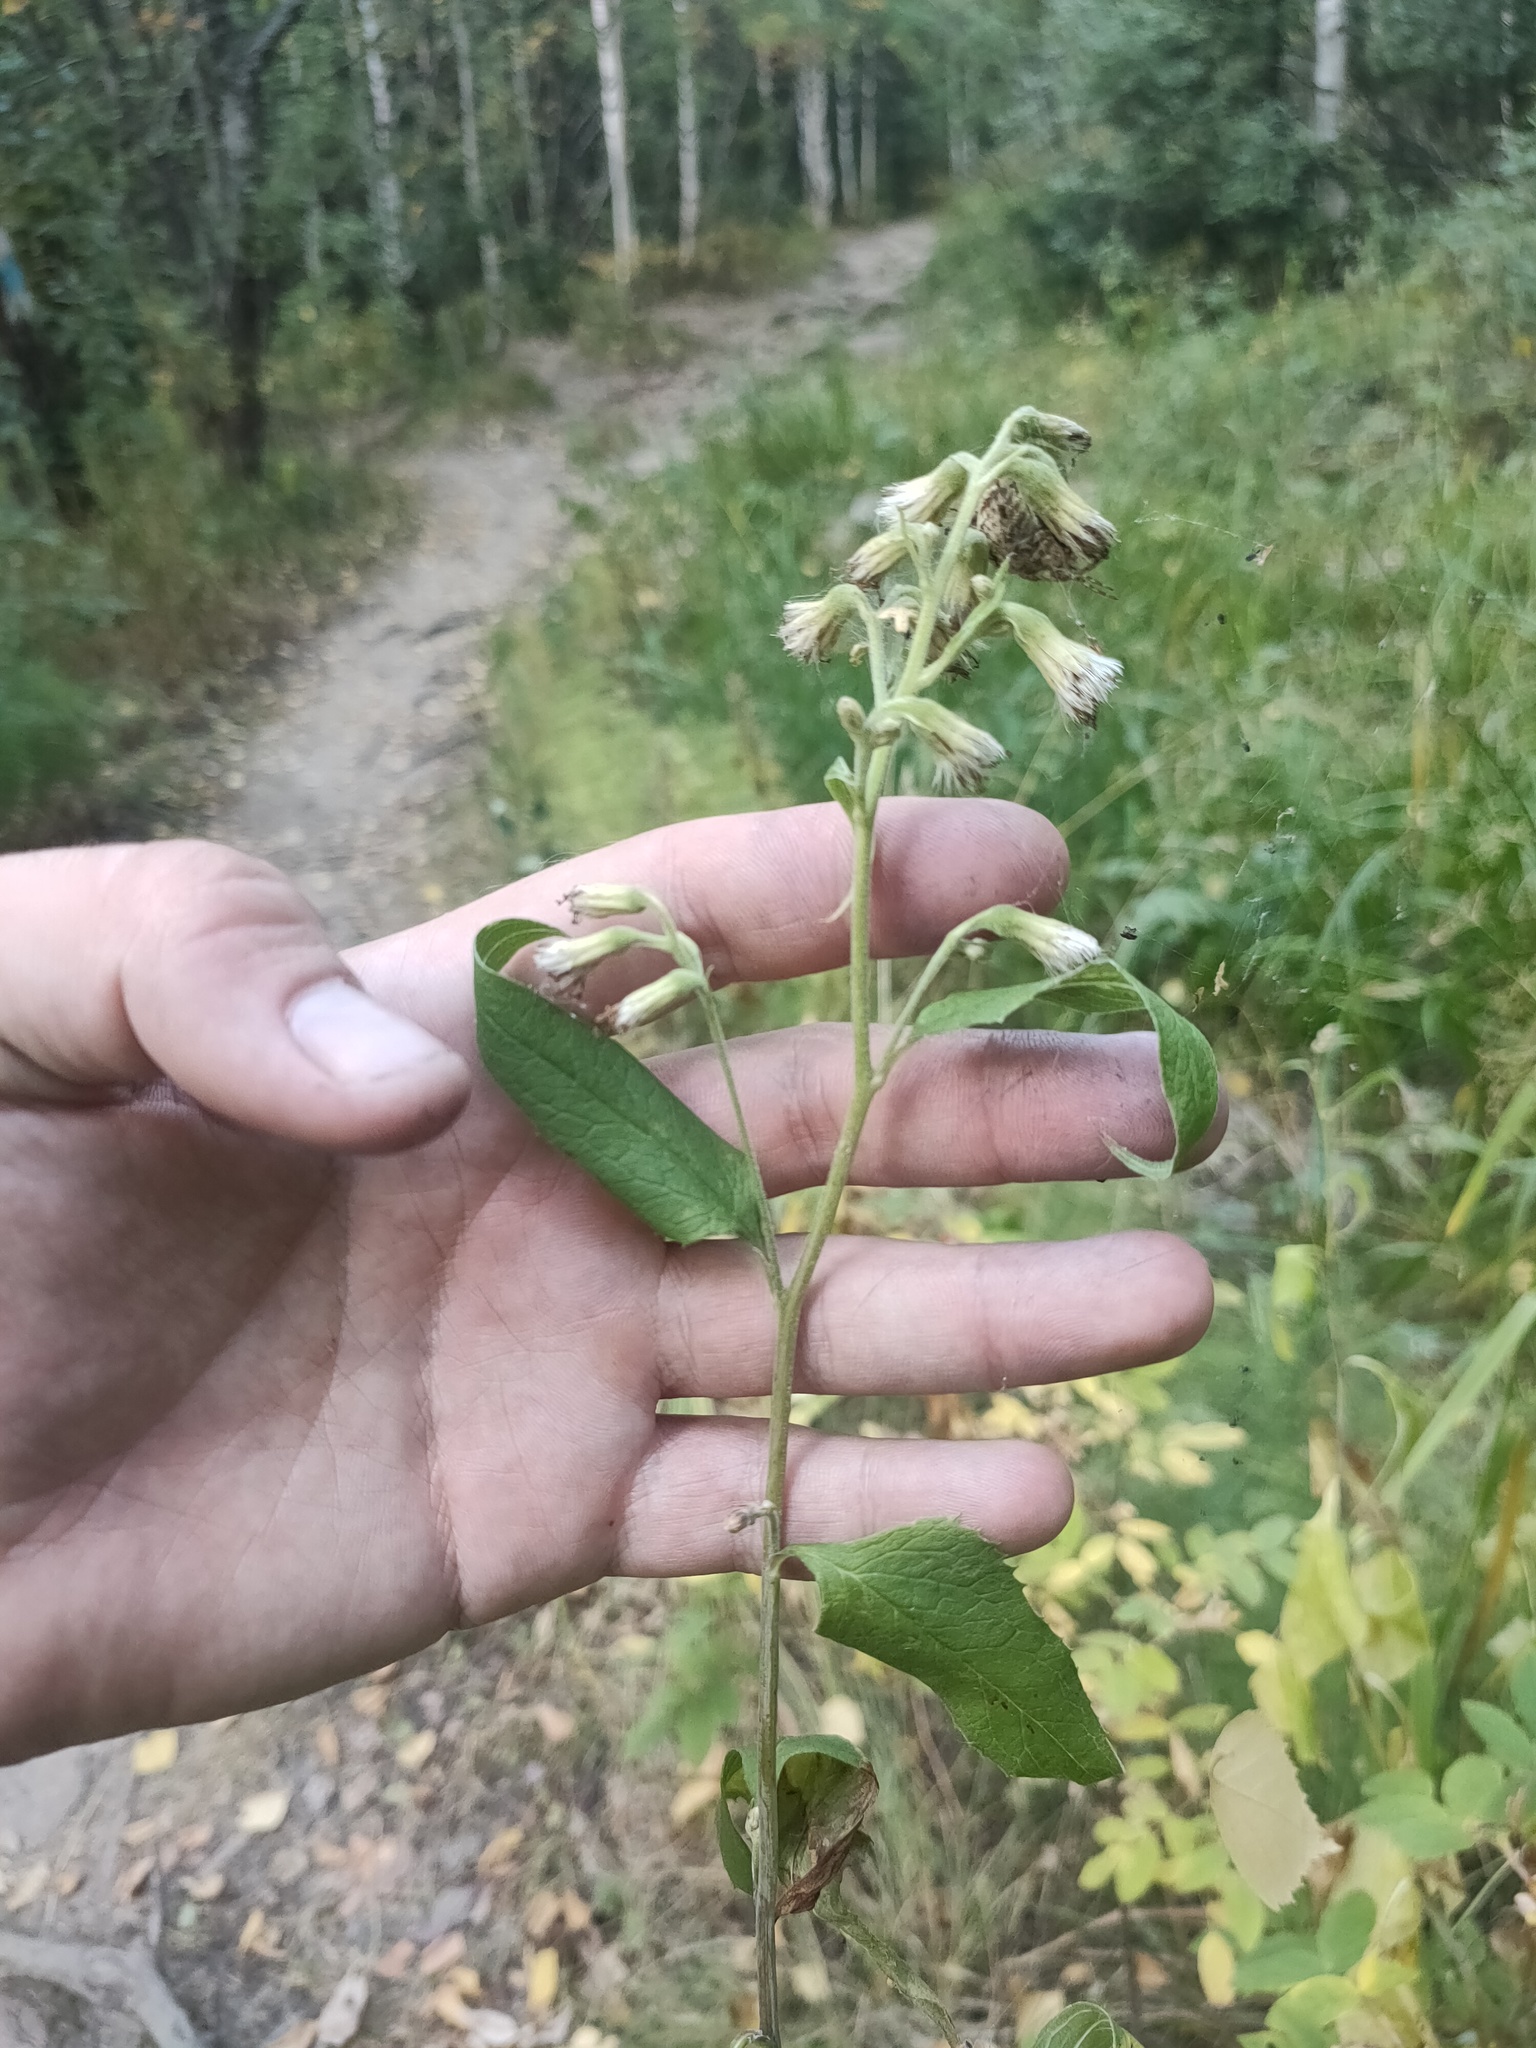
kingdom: Plantae
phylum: Tracheophyta
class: Magnoliopsida
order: Asterales
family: Asteraceae
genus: Parasenecio
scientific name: Parasenecio hastatus
